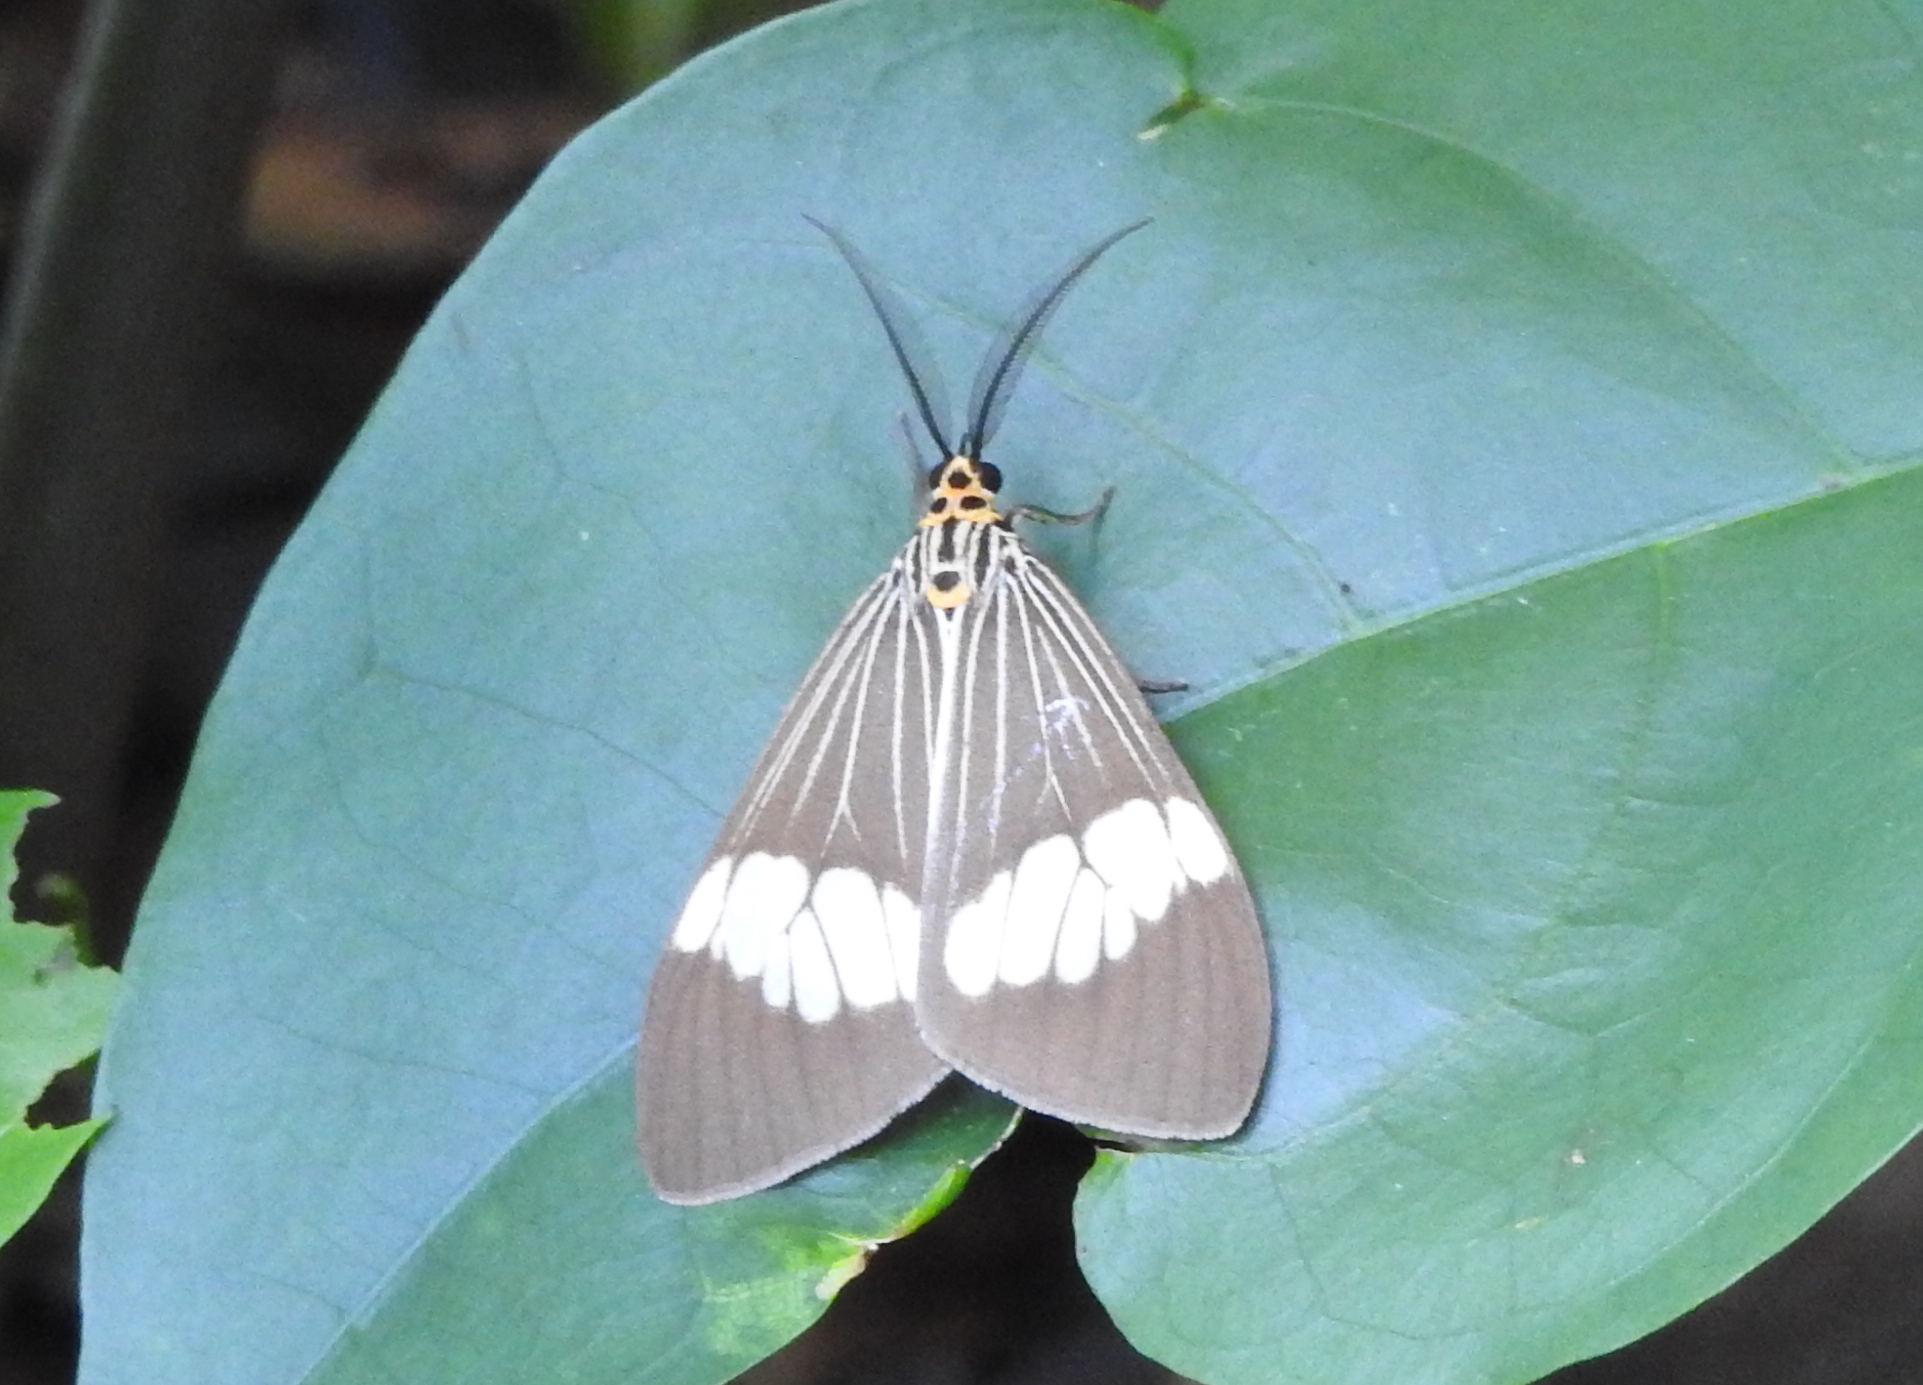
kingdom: Animalia
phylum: Arthropoda
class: Insecta
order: Lepidoptera
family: Erebidae
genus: Nyctemera
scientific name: Nyctemera baulus
